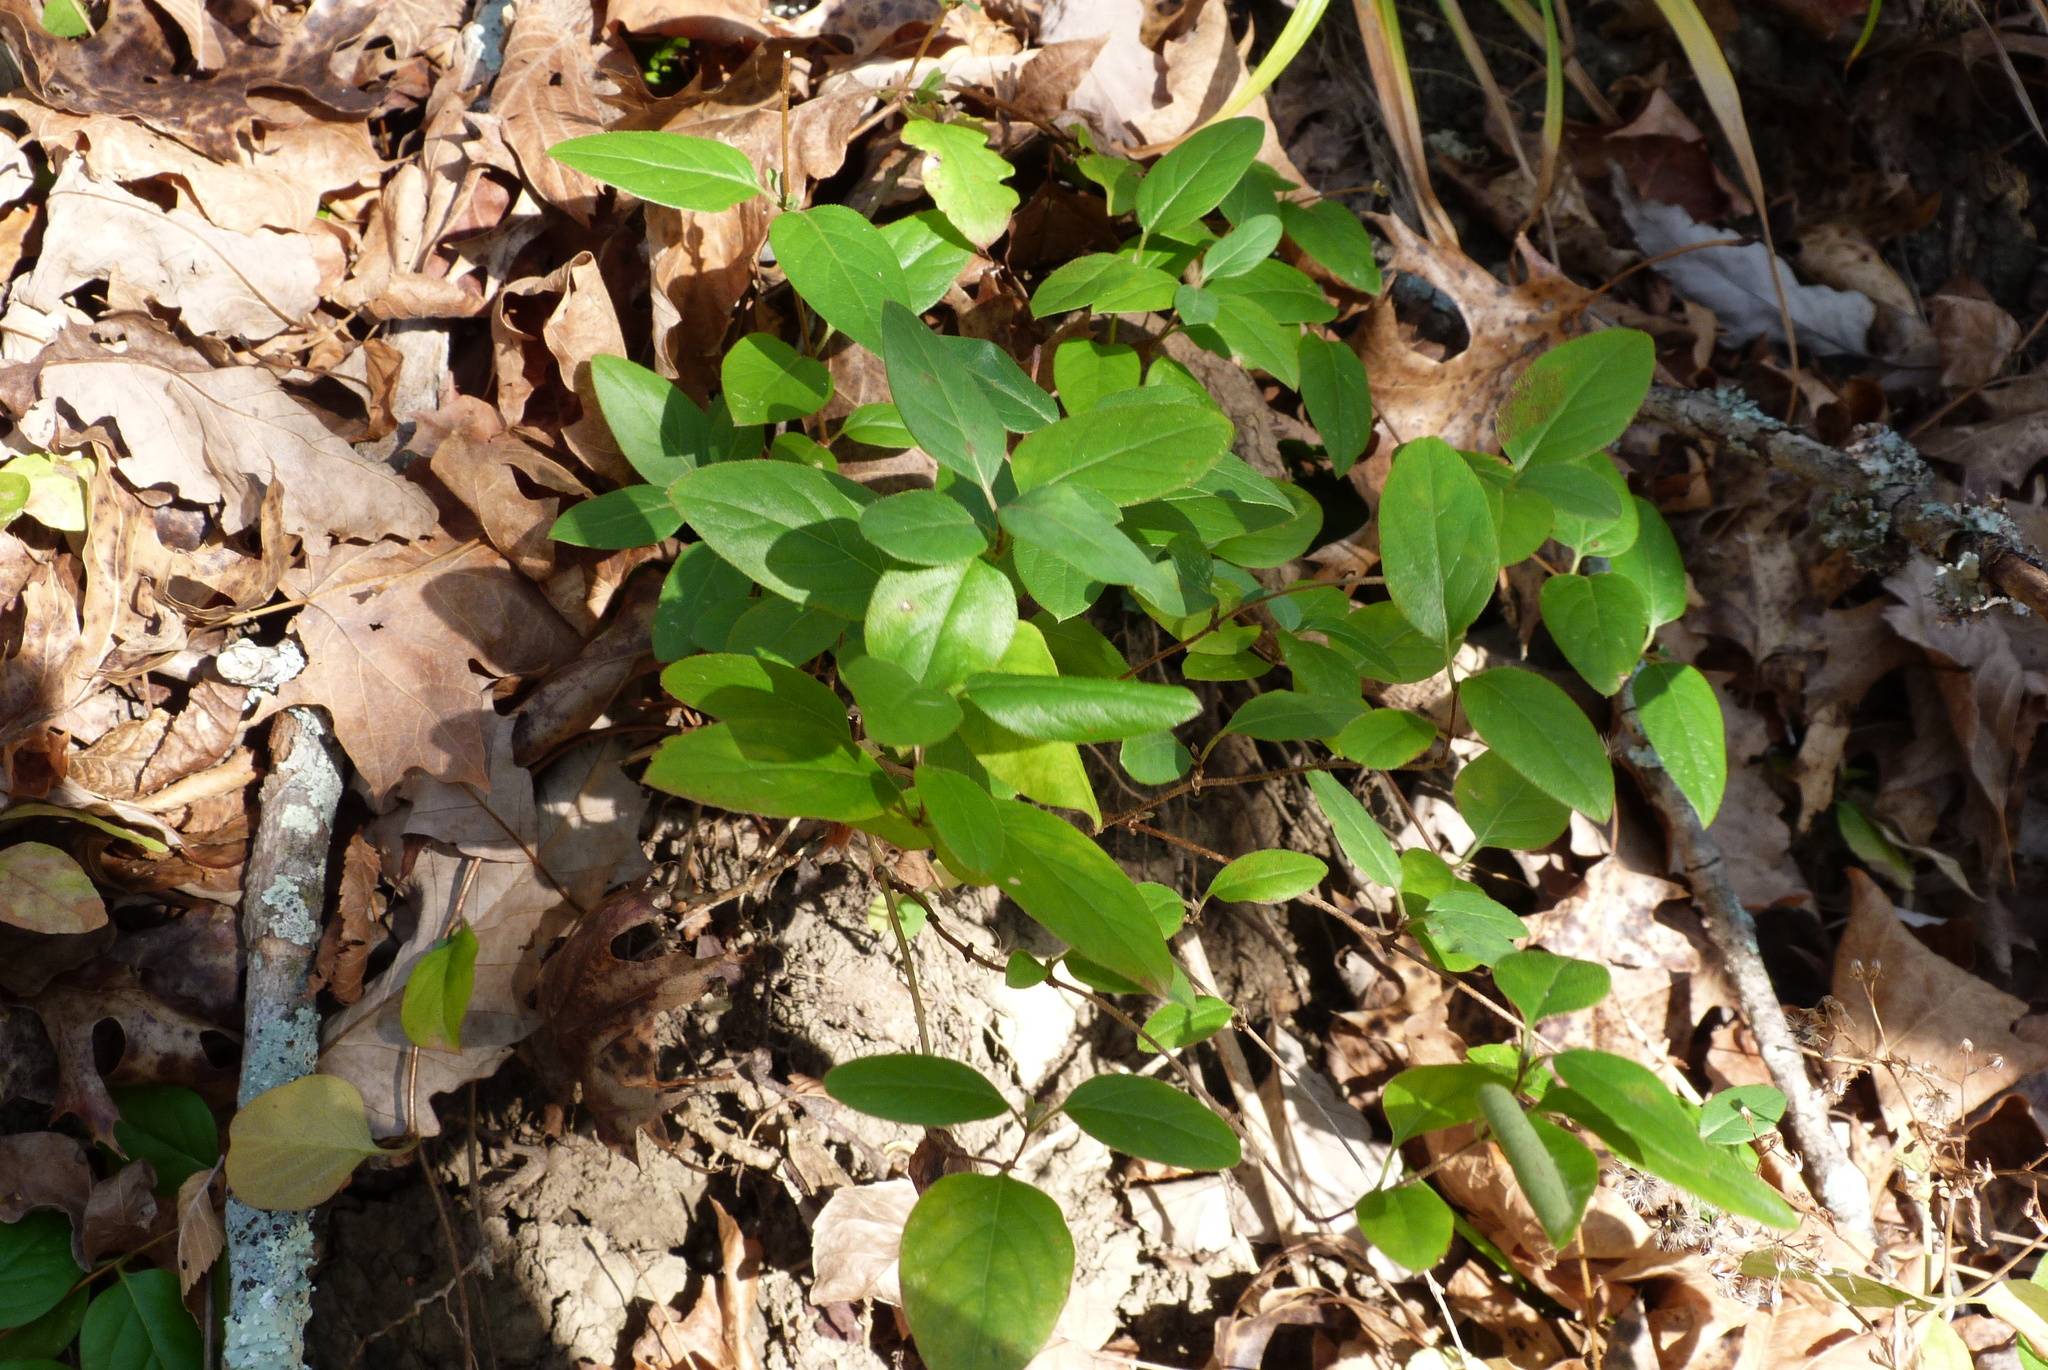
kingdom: Plantae
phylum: Tracheophyta
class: Magnoliopsida
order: Dipsacales
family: Caprifoliaceae
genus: Lonicera
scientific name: Lonicera japonica
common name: Japanese honeysuckle
